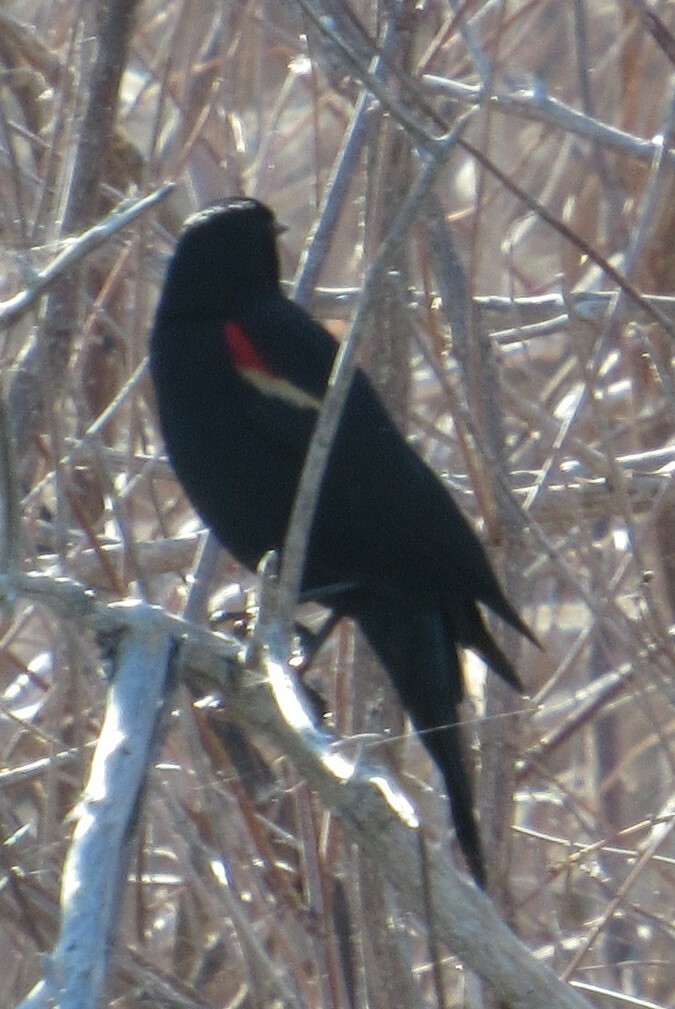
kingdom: Animalia
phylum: Chordata
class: Aves
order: Passeriformes
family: Icteridae
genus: Agelaius
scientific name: Agelaius phoeniceus
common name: Red-winged blackbird
